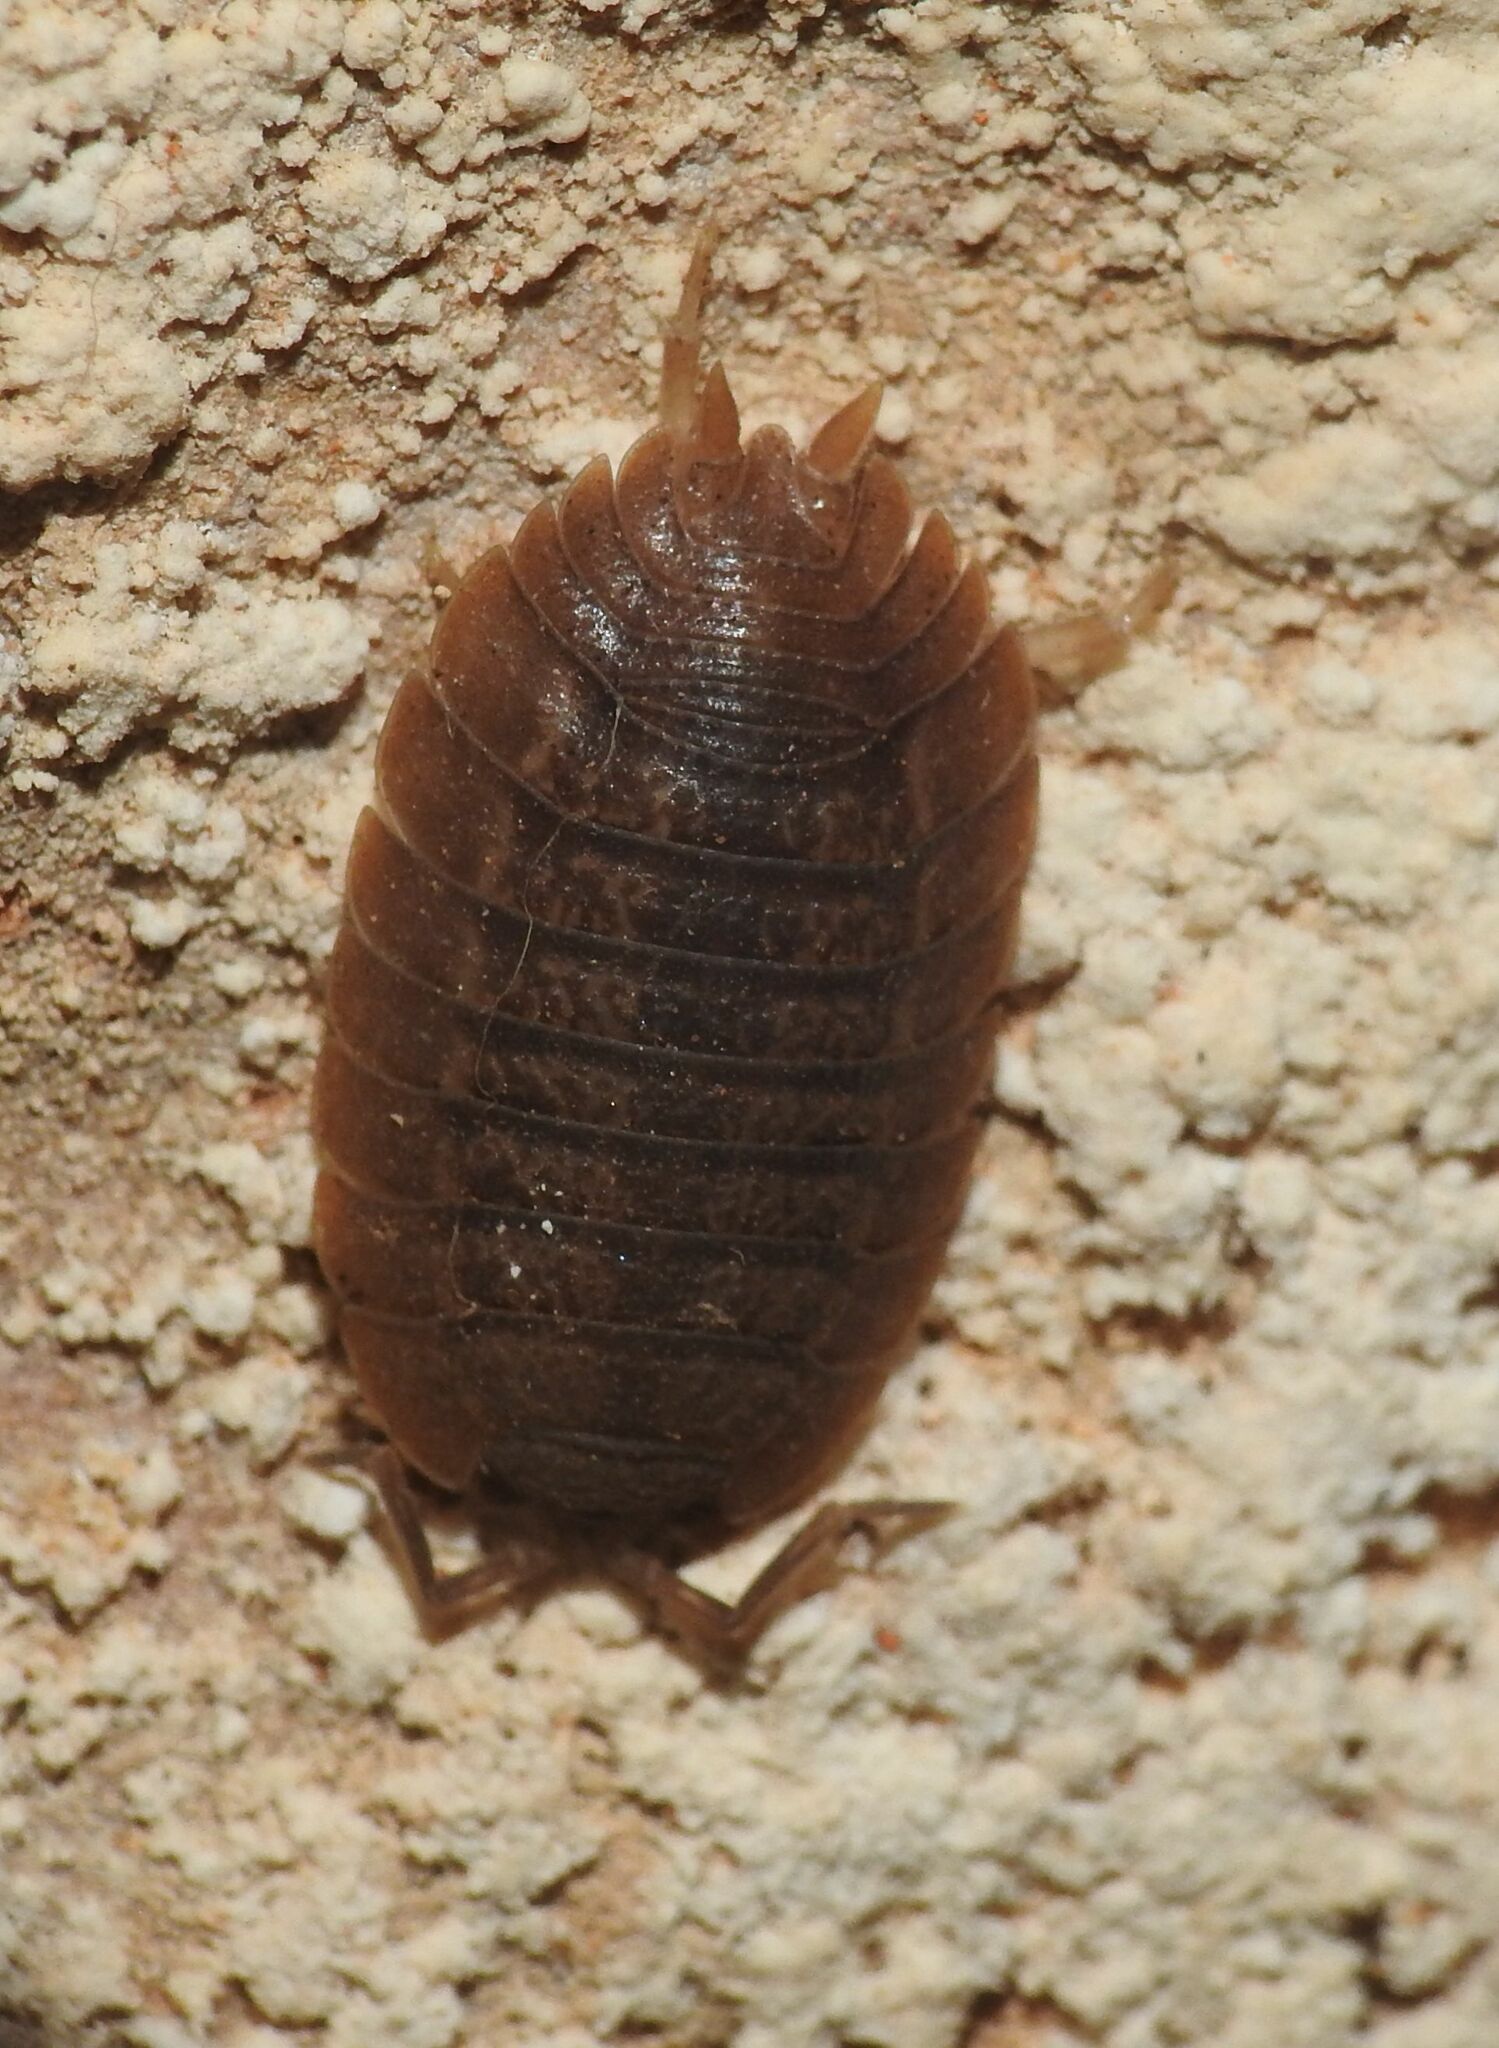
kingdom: Animalia
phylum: Arthropoda
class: Malacostraca
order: Isopoda
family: Porcellionidae
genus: Porcellio
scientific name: Porcellio dilatatus
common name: Isopod
